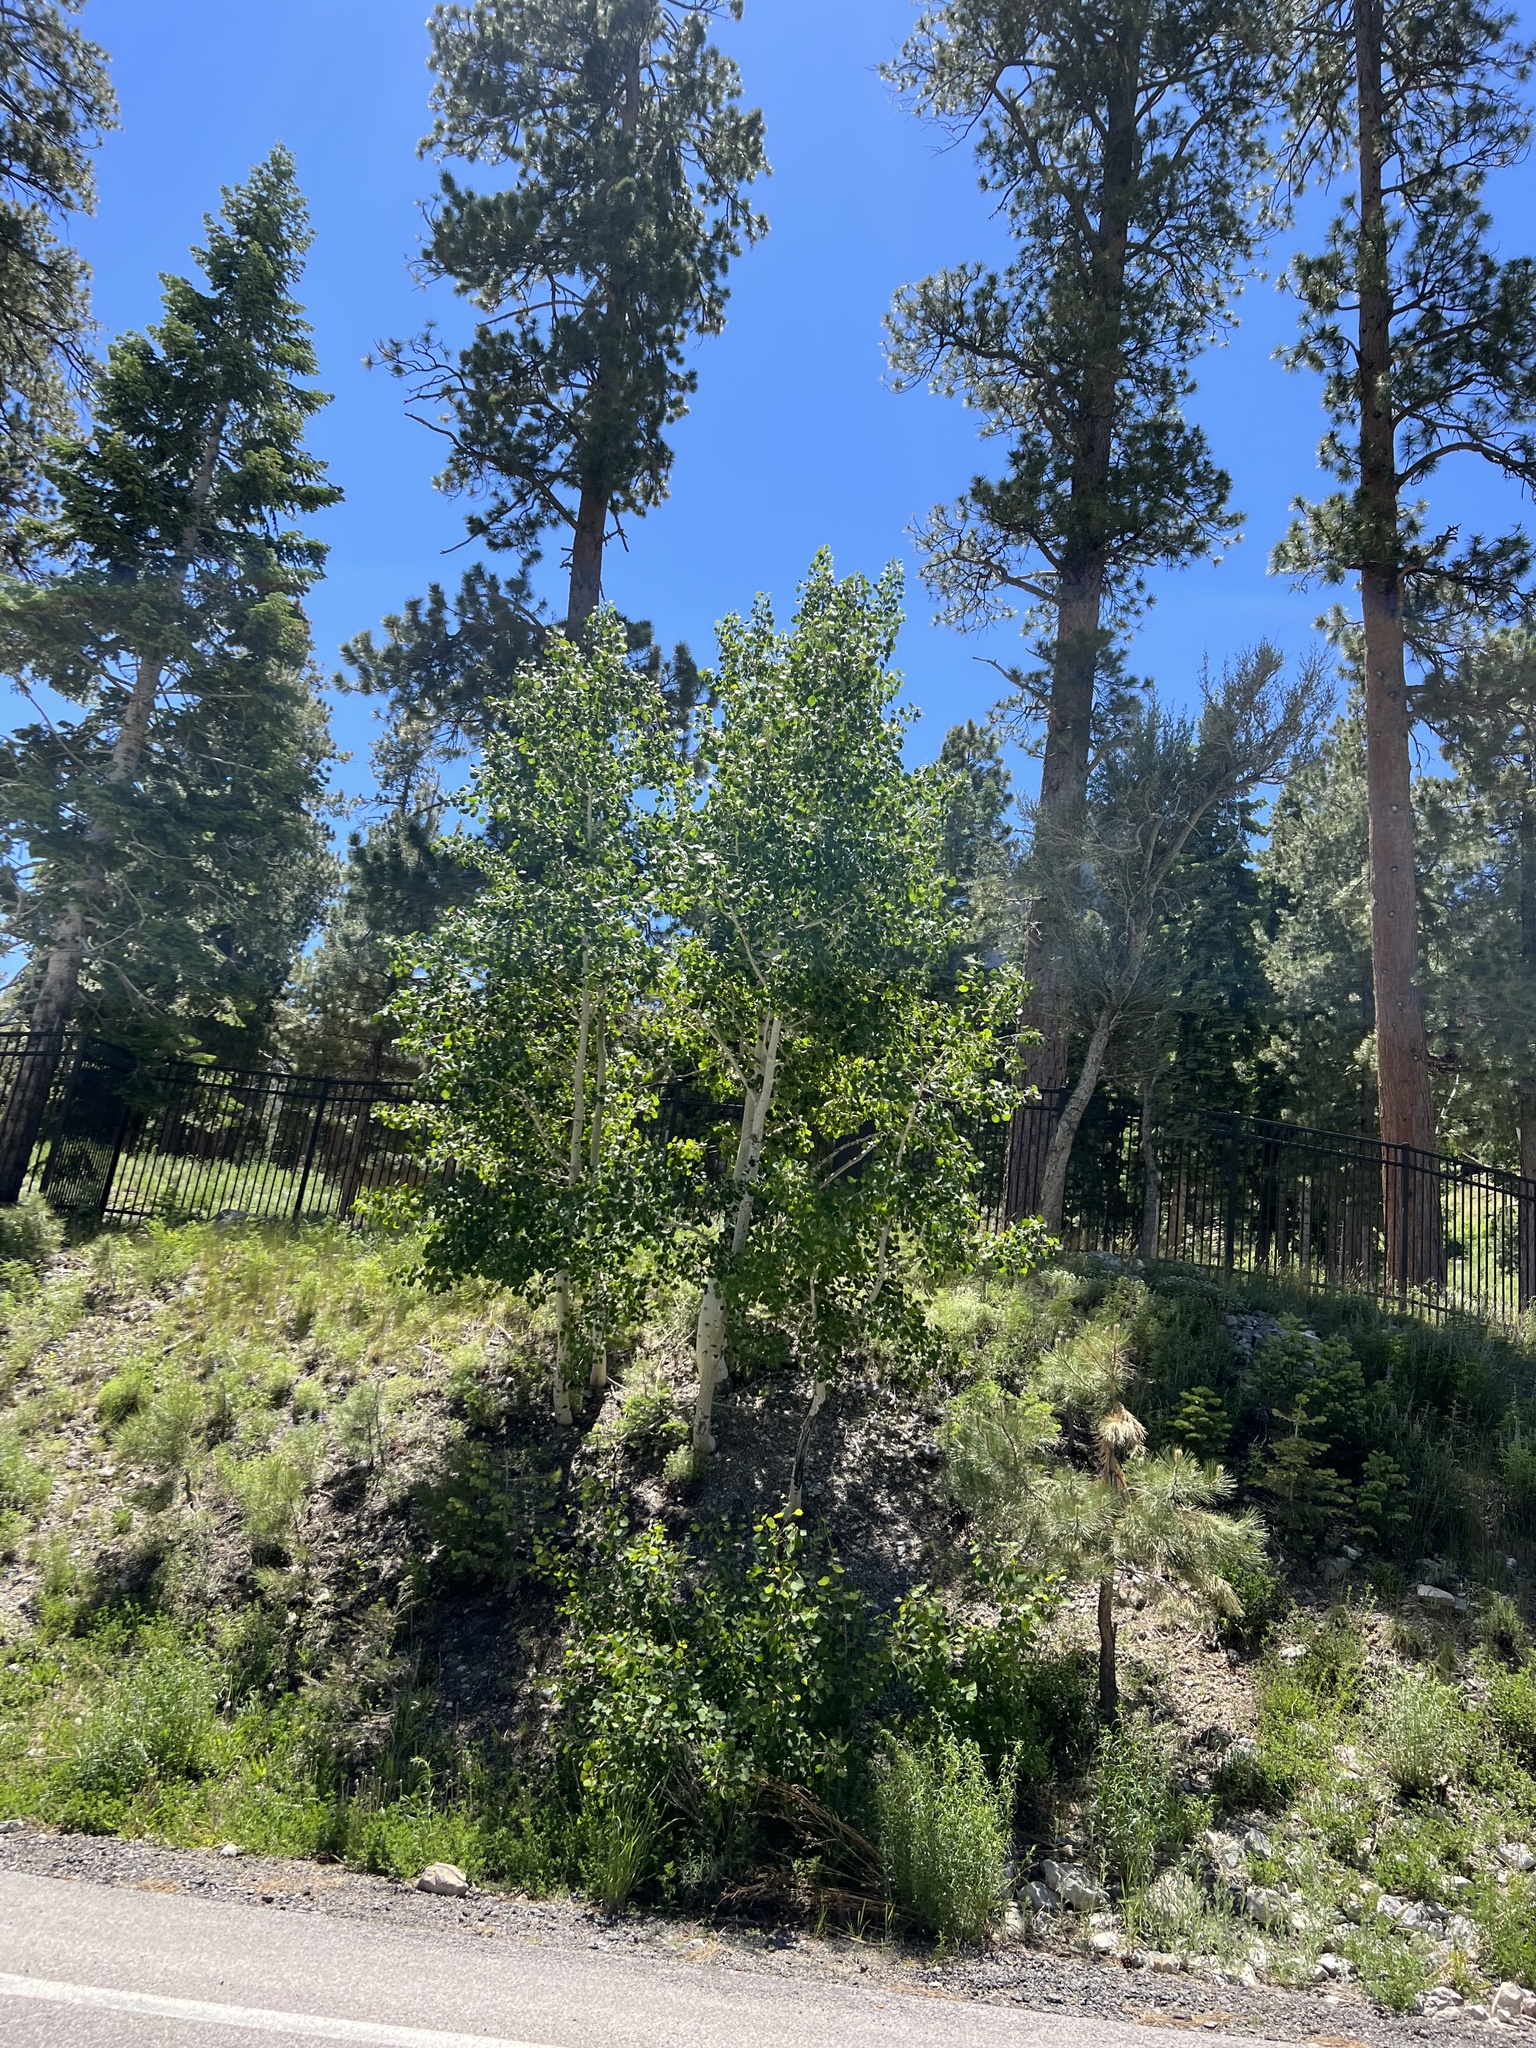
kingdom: Plantae
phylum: Tracheophyta
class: Magnoliopsida
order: Malpighiales
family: Salicaceae
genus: Populus
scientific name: Populus tremuloides
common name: Quaking aspen
